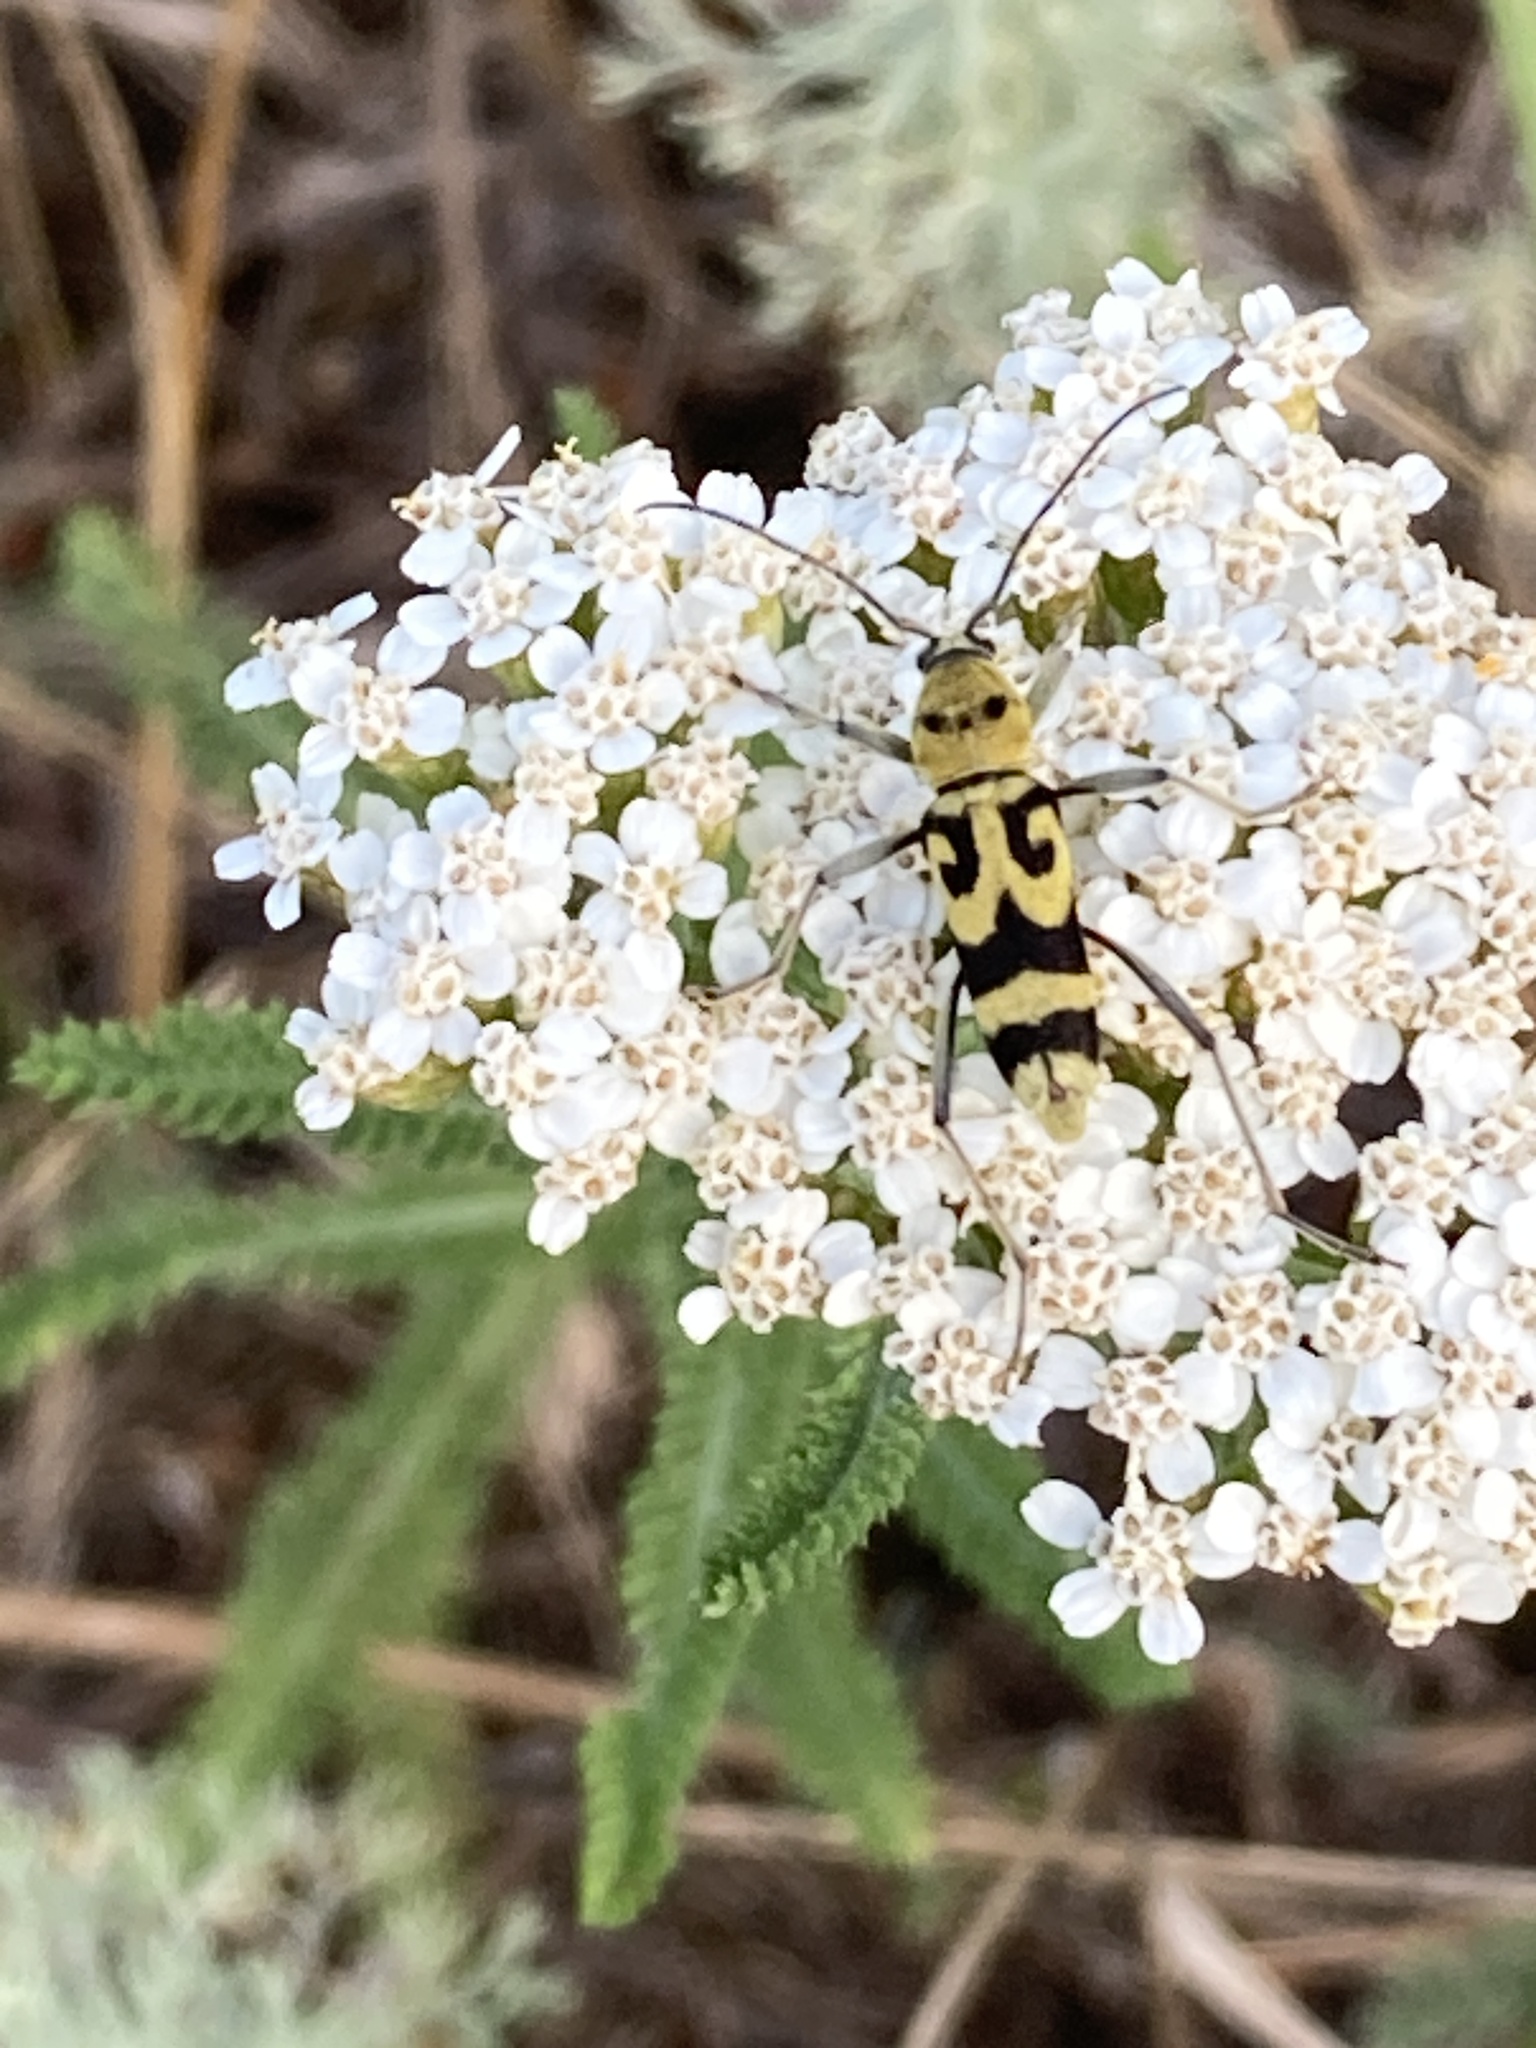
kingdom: Animalia
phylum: Arthropoda
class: Insecta
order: Coleoptera
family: Cerambycidae
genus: Chlorophorus
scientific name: Chlorophorus varius
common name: Grape wood borer
